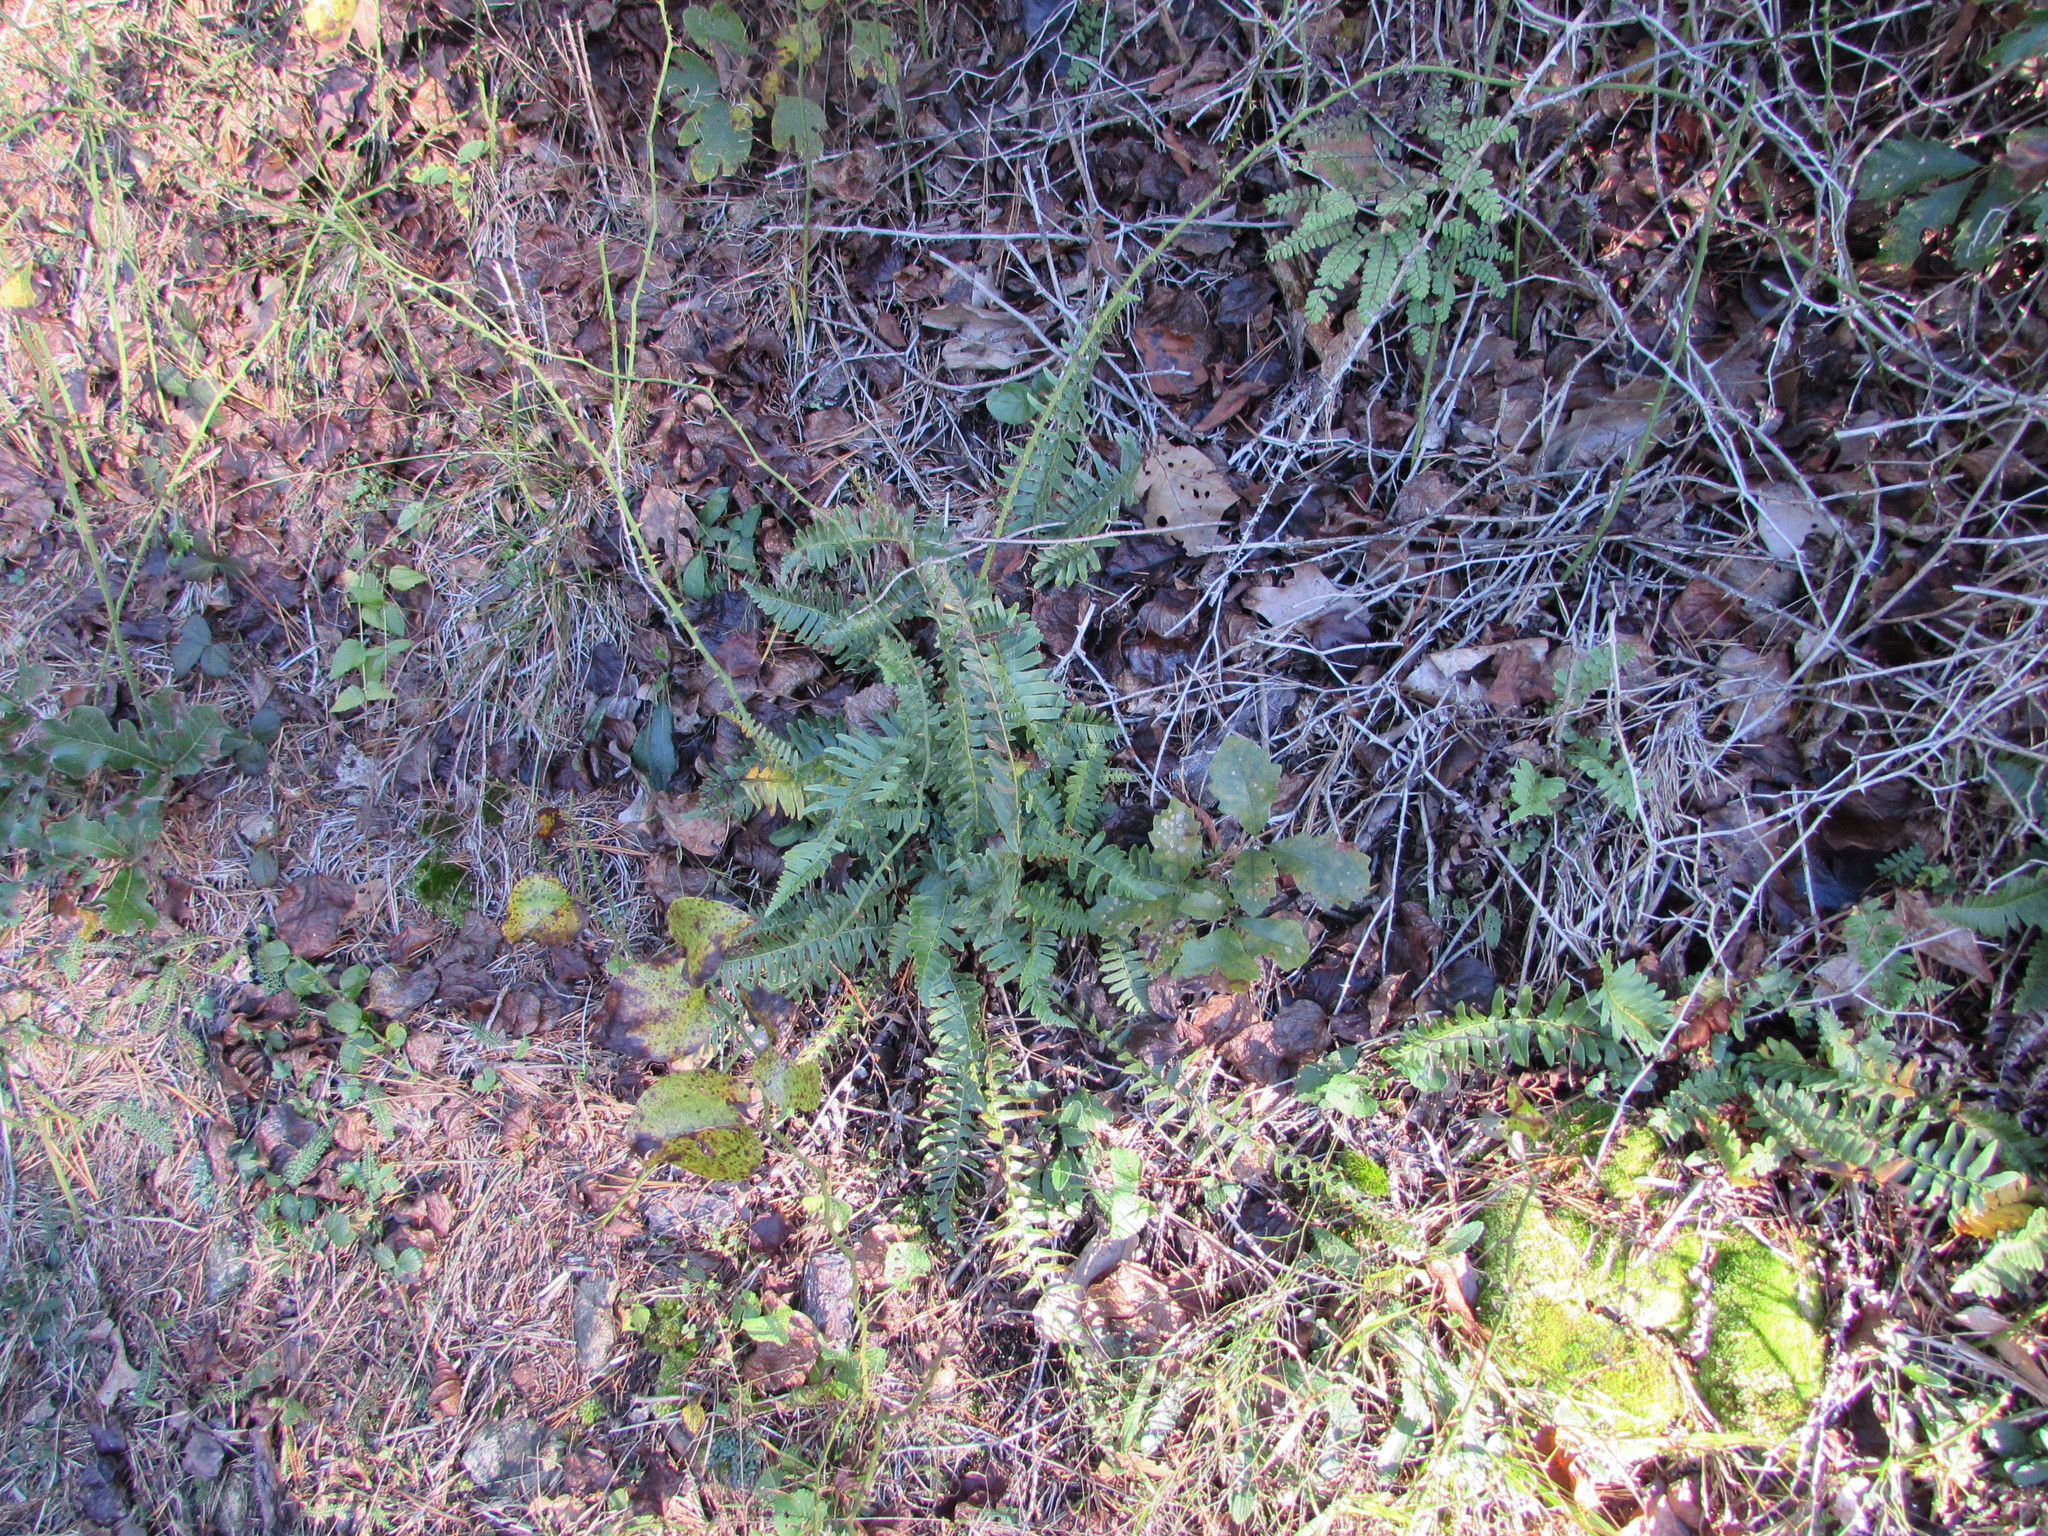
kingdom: Plantae
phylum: Tracheophyta
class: Polypodiopsida
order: Polypodiales
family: Dryopteridaceae
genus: Polystichum
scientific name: Polystichum acrostichoides
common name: Christmas fern
